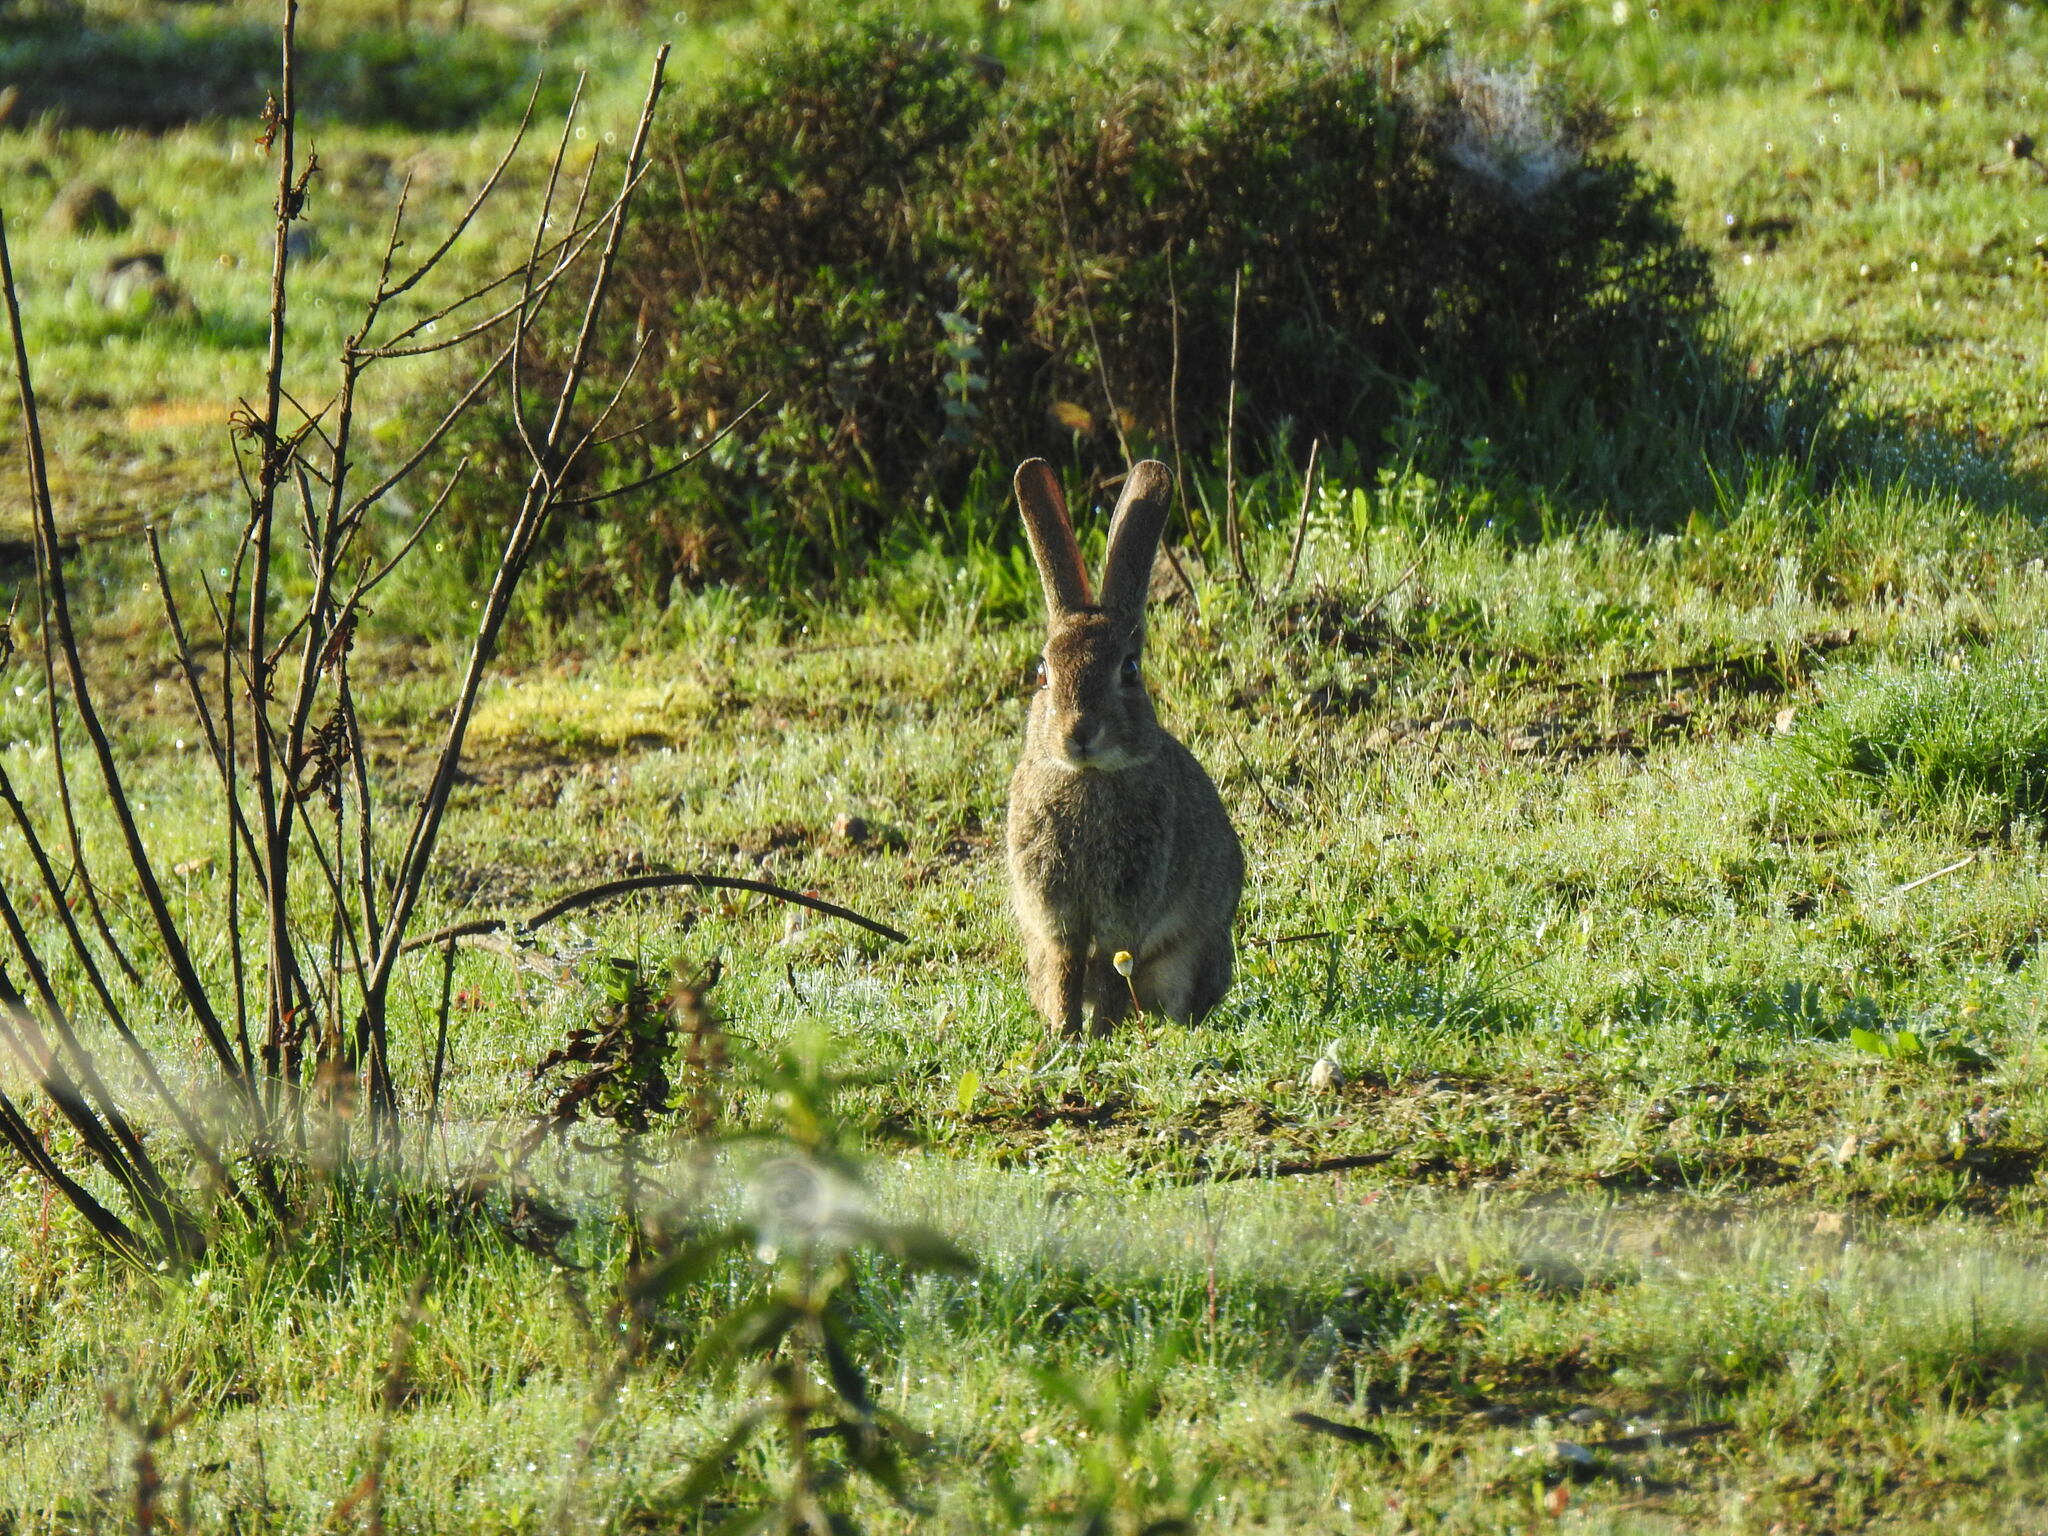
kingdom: Animalia
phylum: Chordata
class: Mammalia
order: Lagomorpha
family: Leporidae
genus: Oryctolagus
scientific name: Oryctolagus cuniculus
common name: European rabbit
